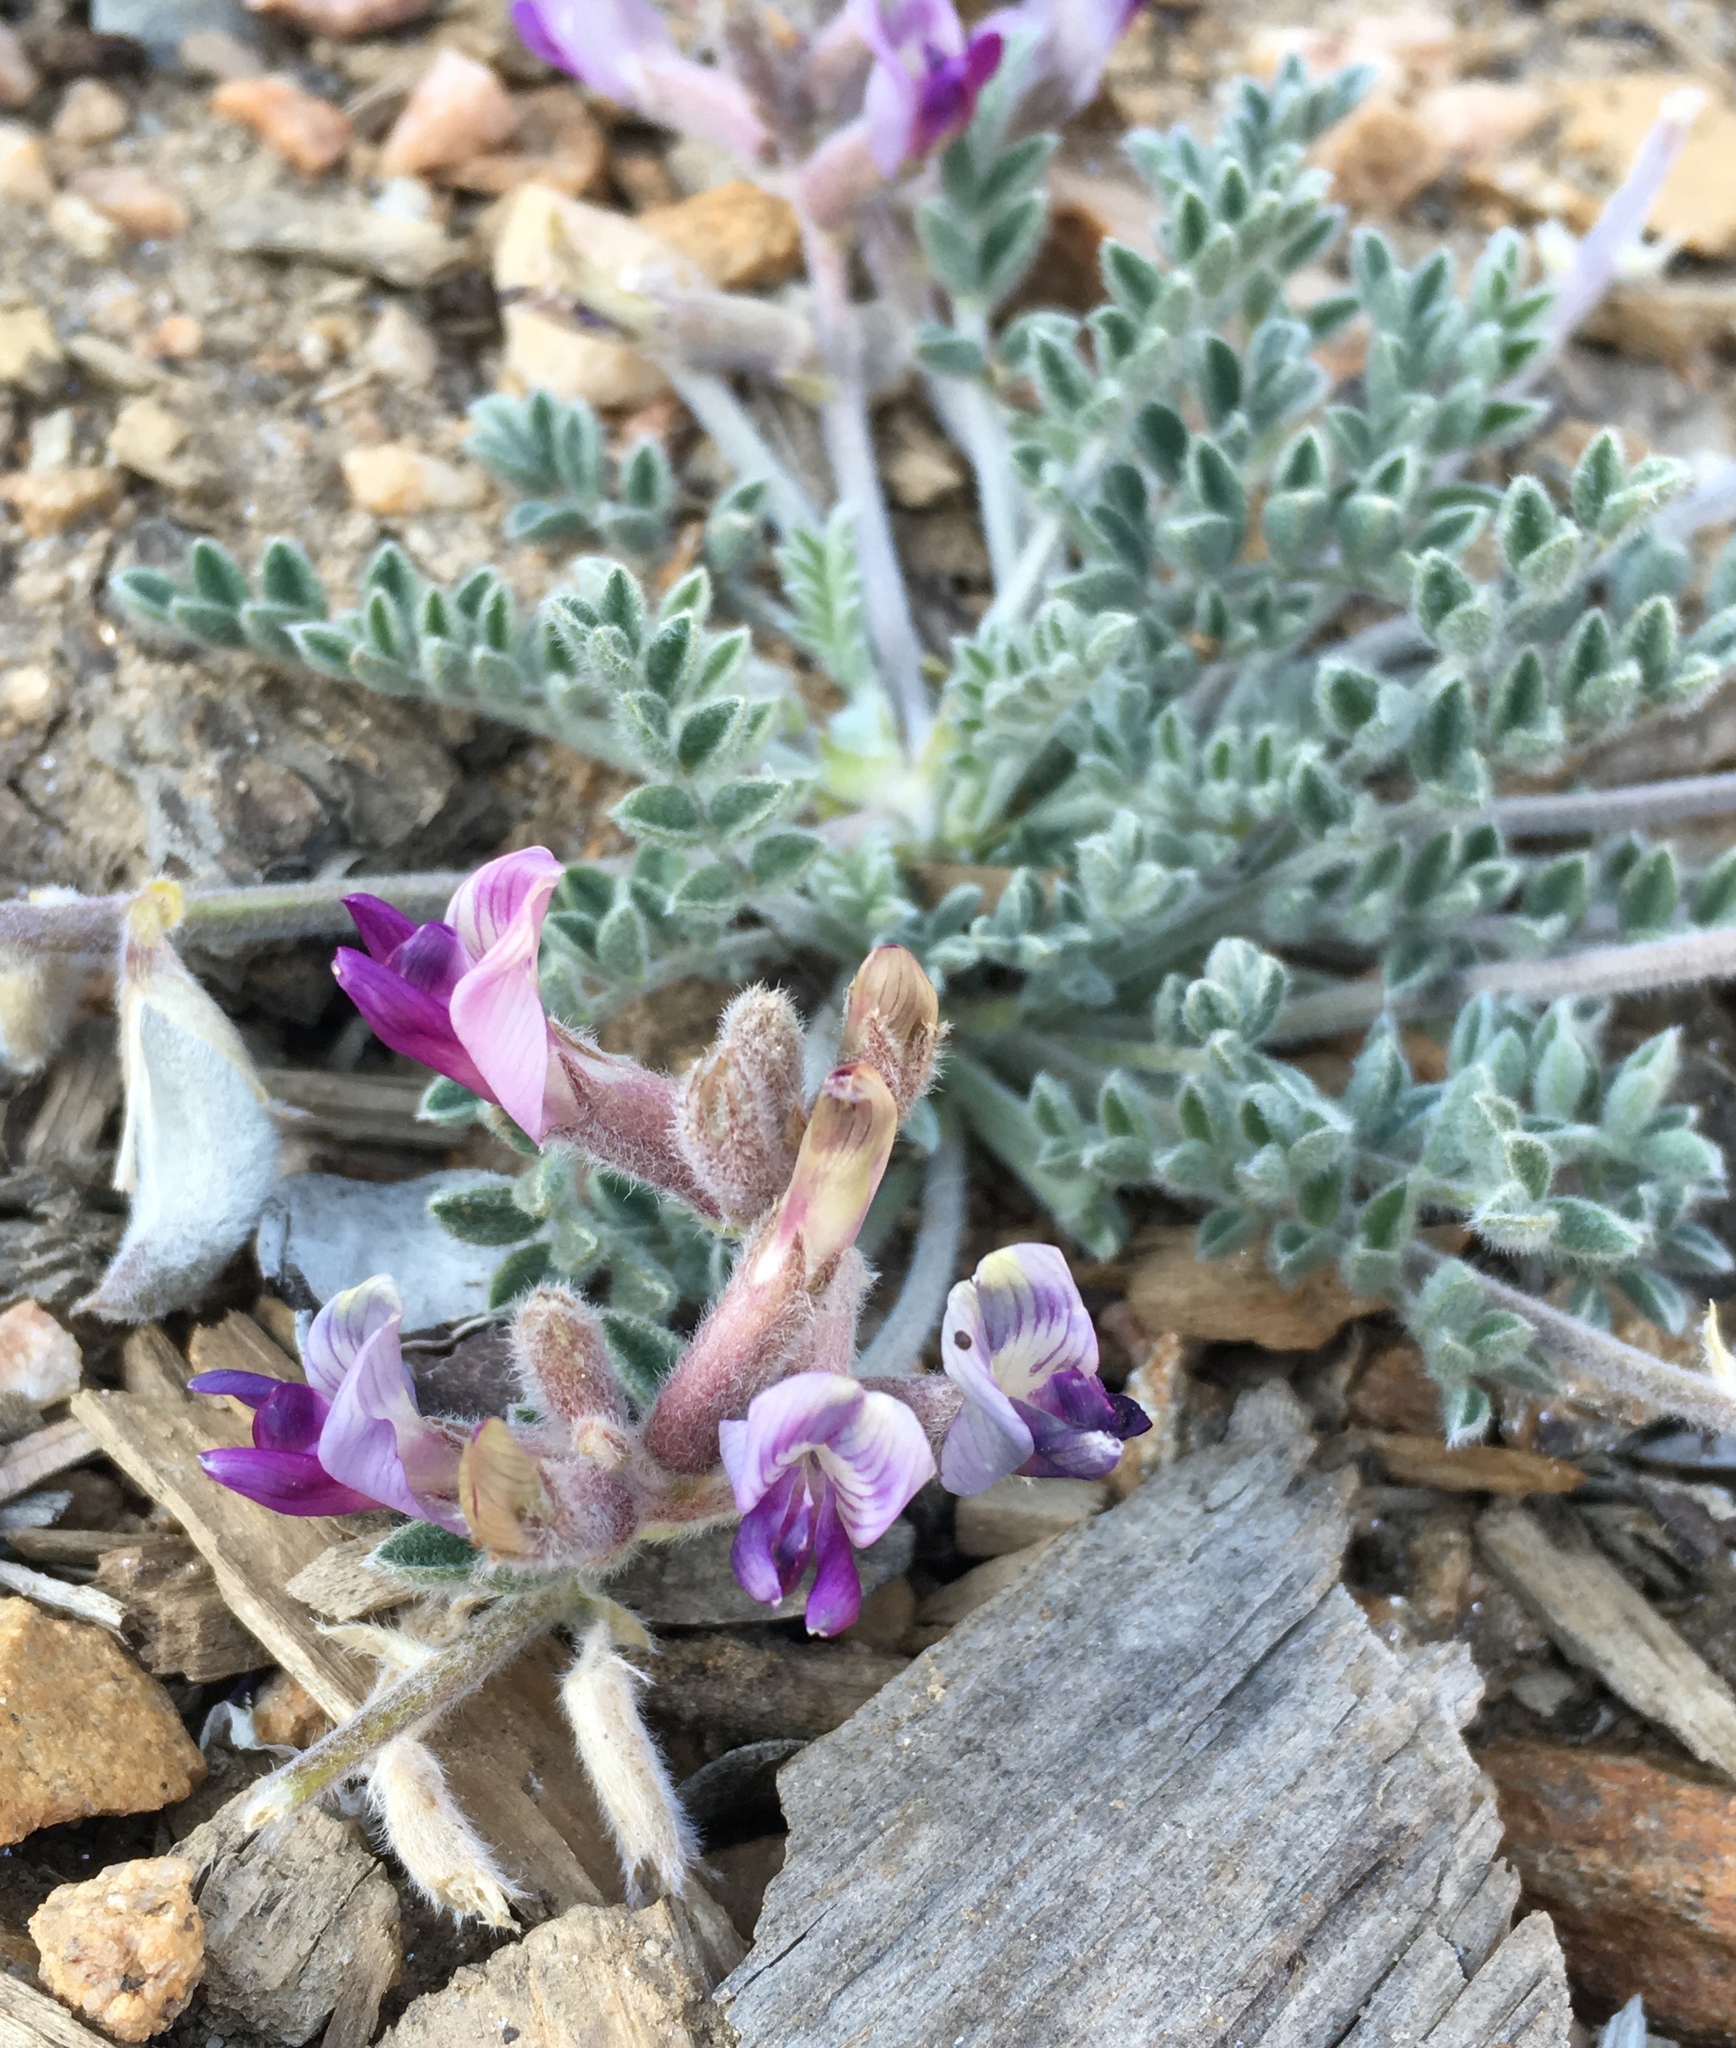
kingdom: Plantae
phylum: Tracheophyta
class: Magnoliopsida
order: Fabales
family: Fabaceae
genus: Astragalus
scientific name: Astragalus leucolobus
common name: Big bear valley woollypod
